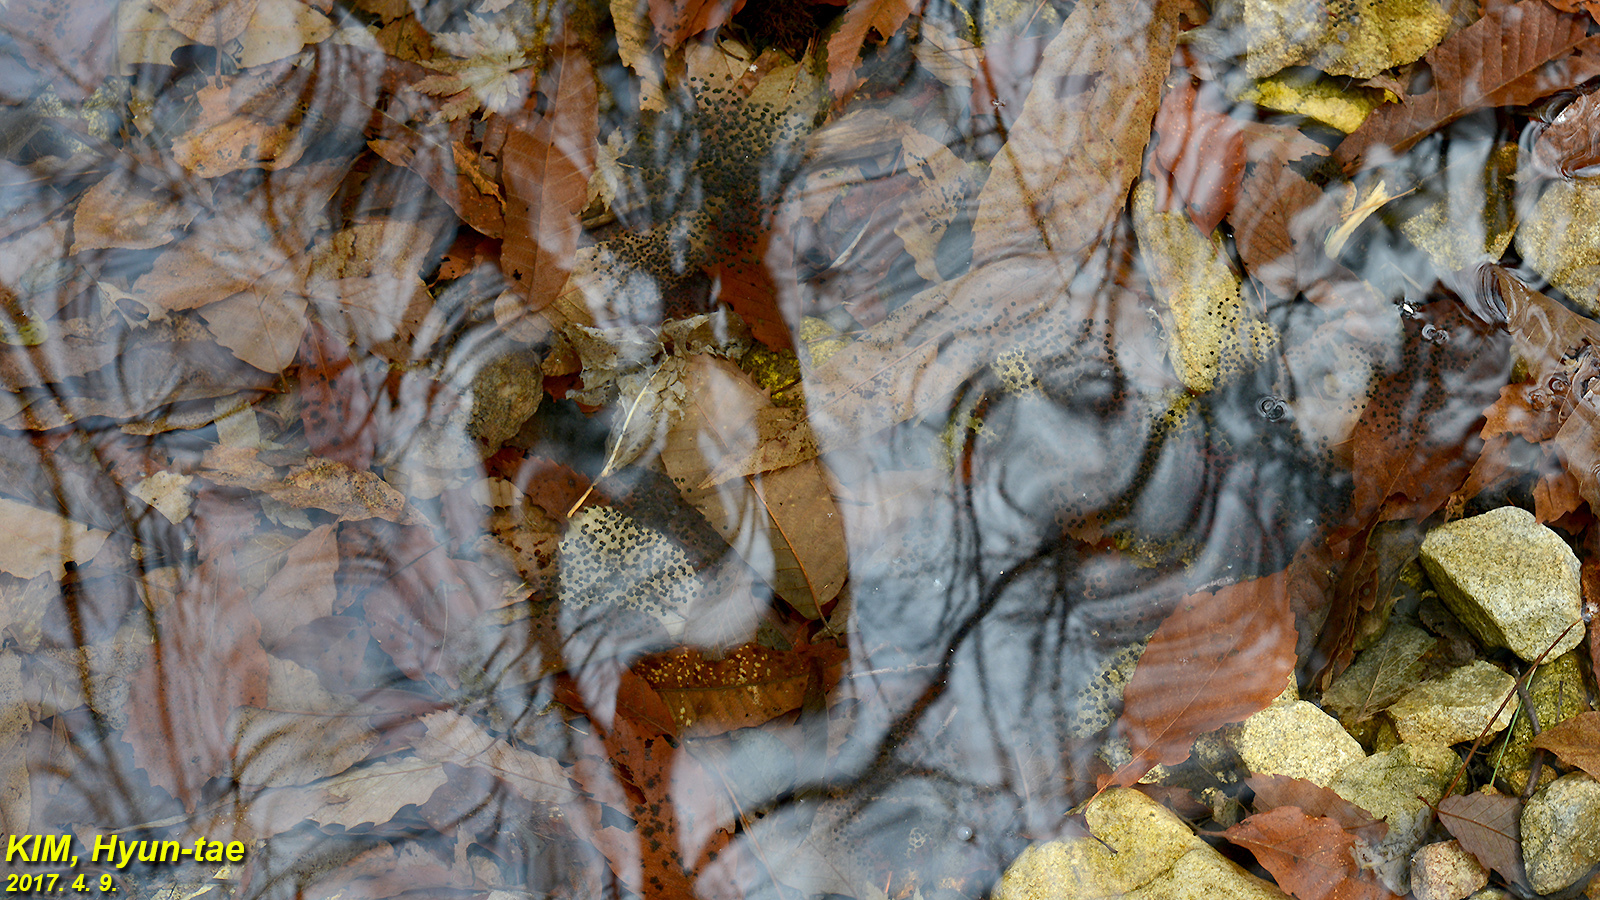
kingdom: Animalia
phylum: Chordata
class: Amphibia
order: Anura
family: Ranidae
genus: Rana
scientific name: Rana huanrenensis
